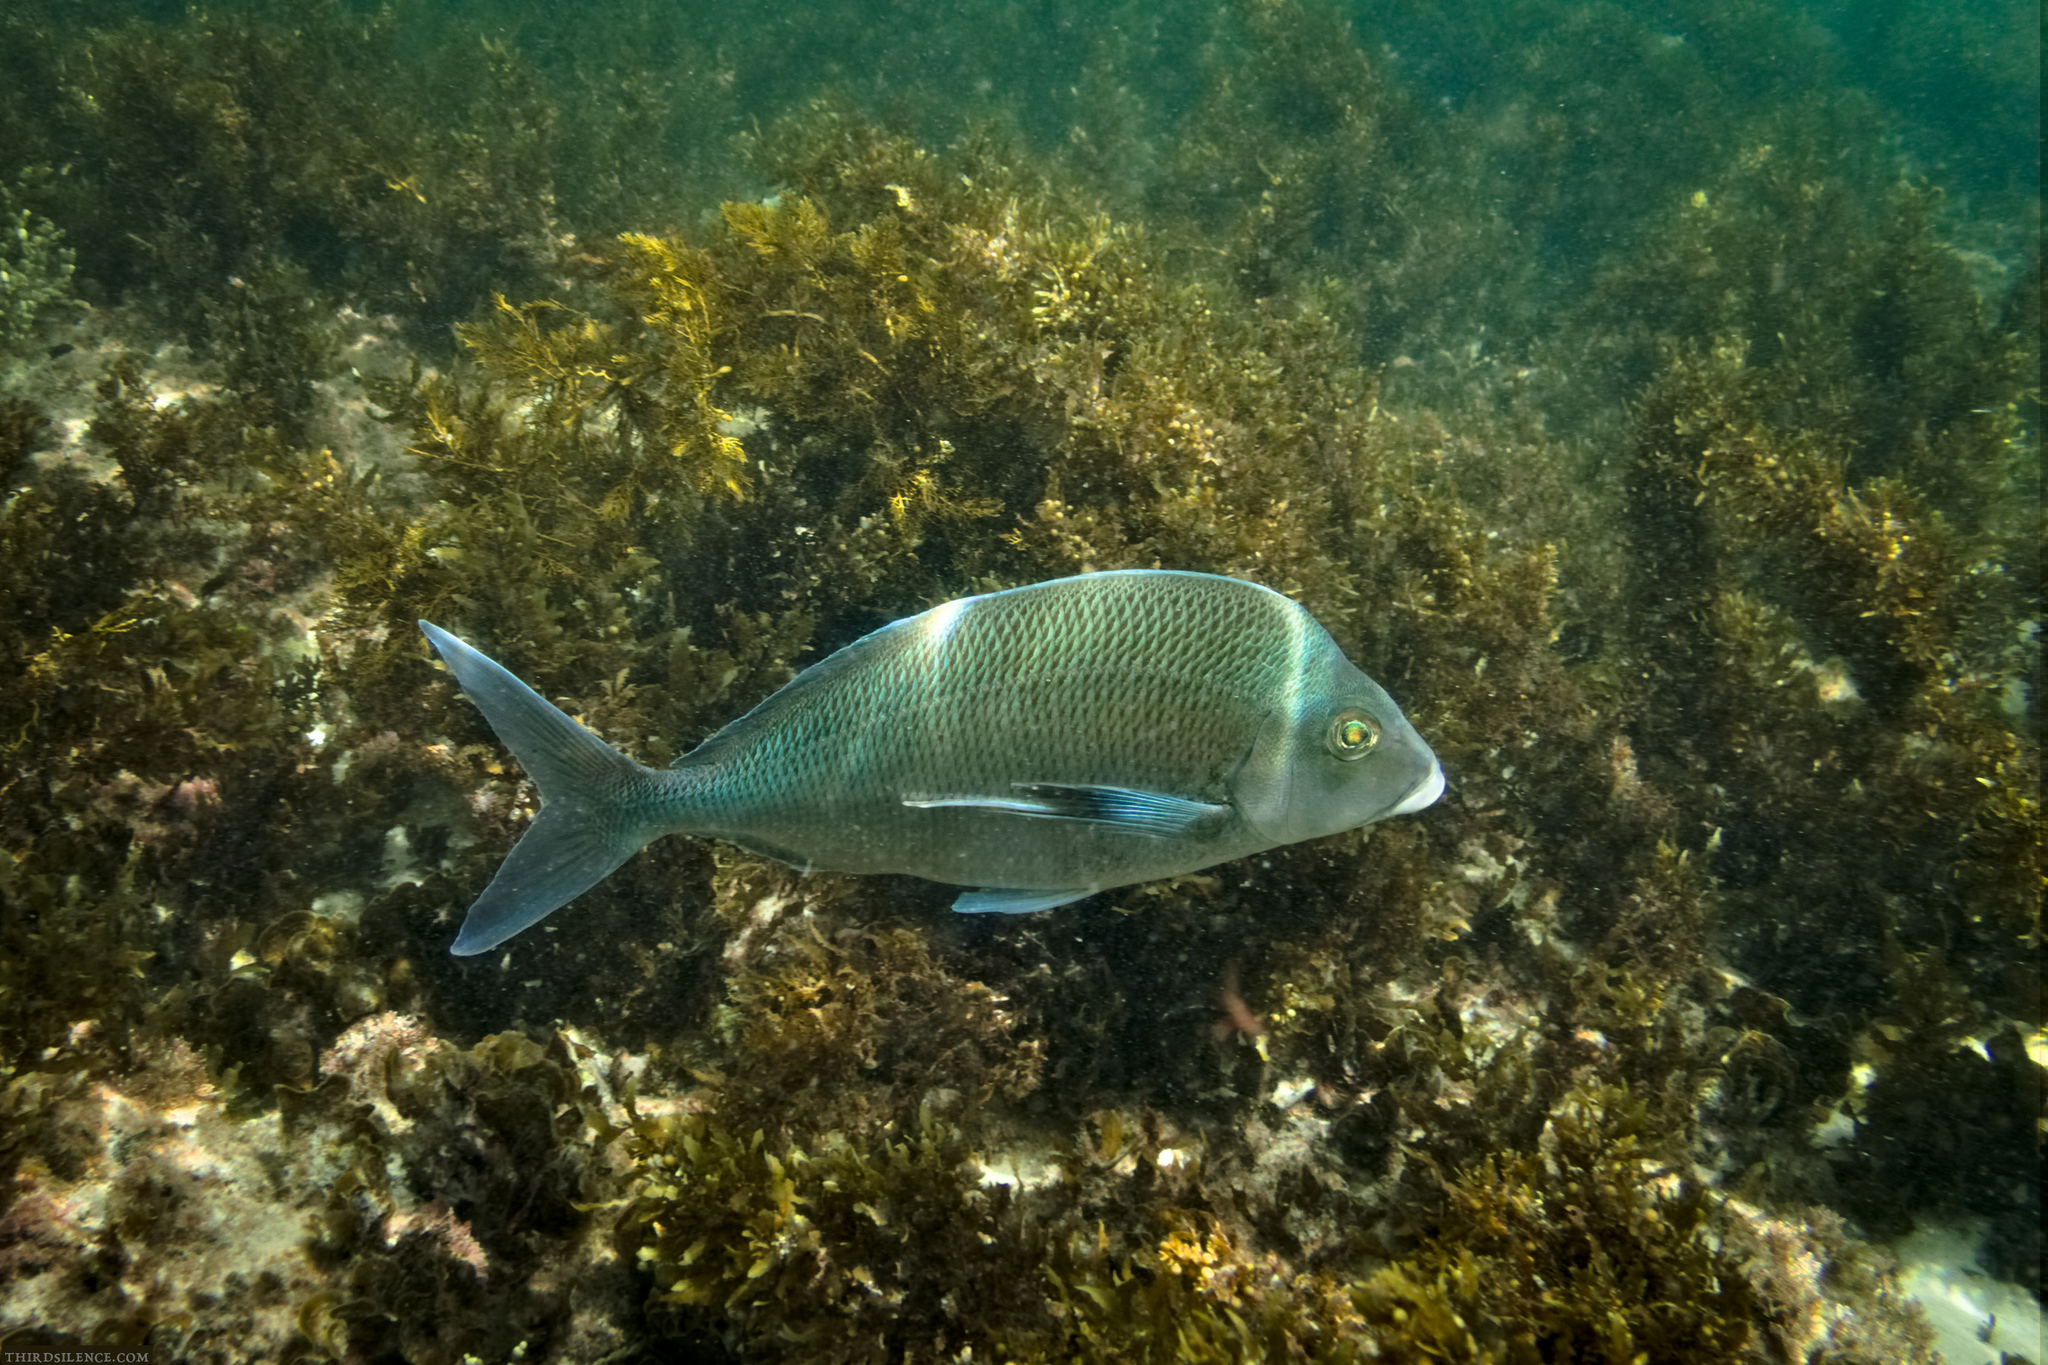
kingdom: Animalia
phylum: Chordata
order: Perciformes
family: Cheilodactylidae
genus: Nemadactylus
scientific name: Nemadactylus douglasii
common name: Porae
